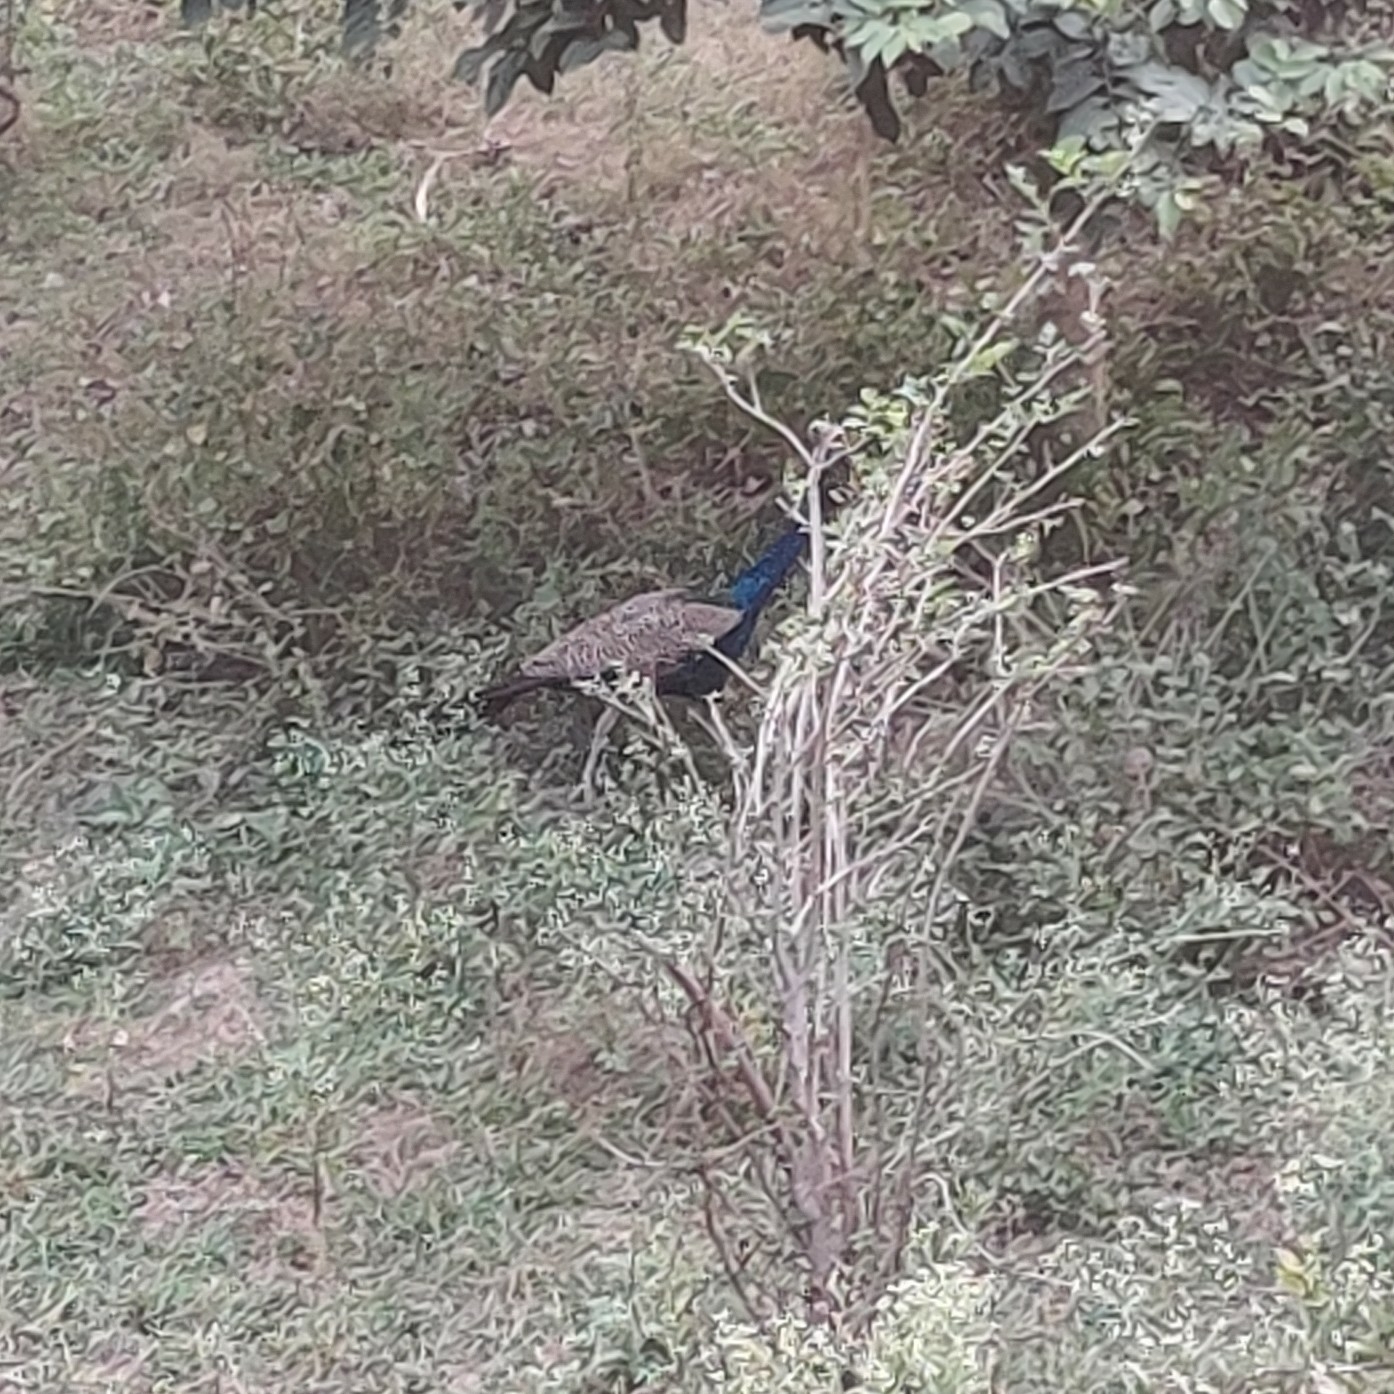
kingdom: Animalia
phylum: Chordata
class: Aves
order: Galliformes
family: Phasianidae
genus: Pavo
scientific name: Pavo cristatus
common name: Indian peafowl
